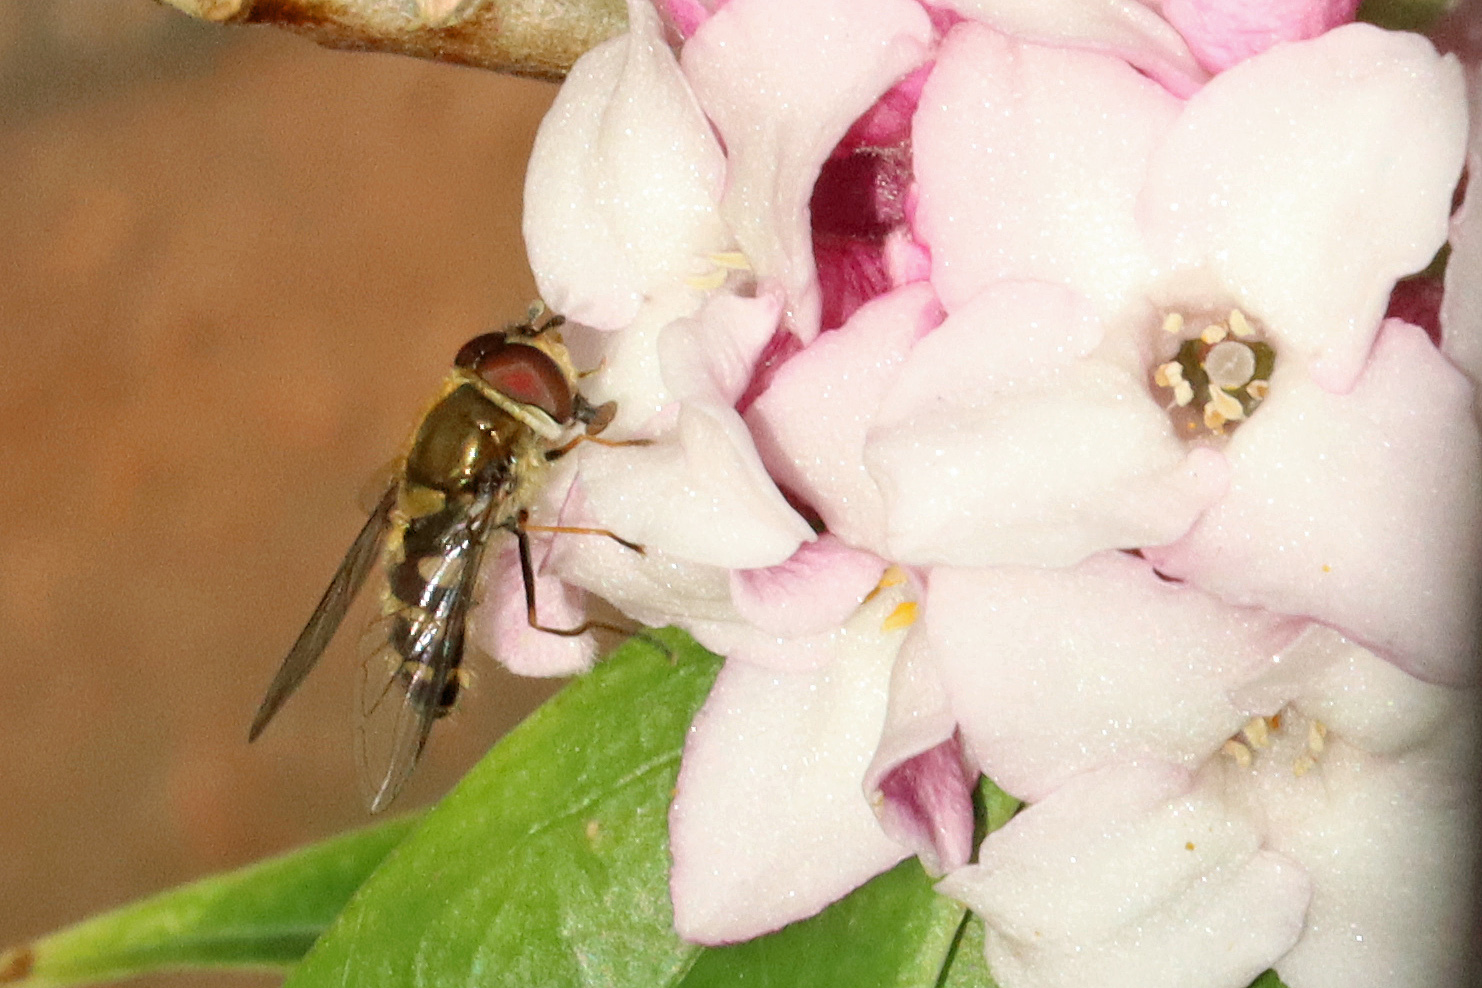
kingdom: Animalia
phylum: Arthropoda
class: Insecta
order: Diptera
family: Syrphidae
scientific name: Syrphidae
